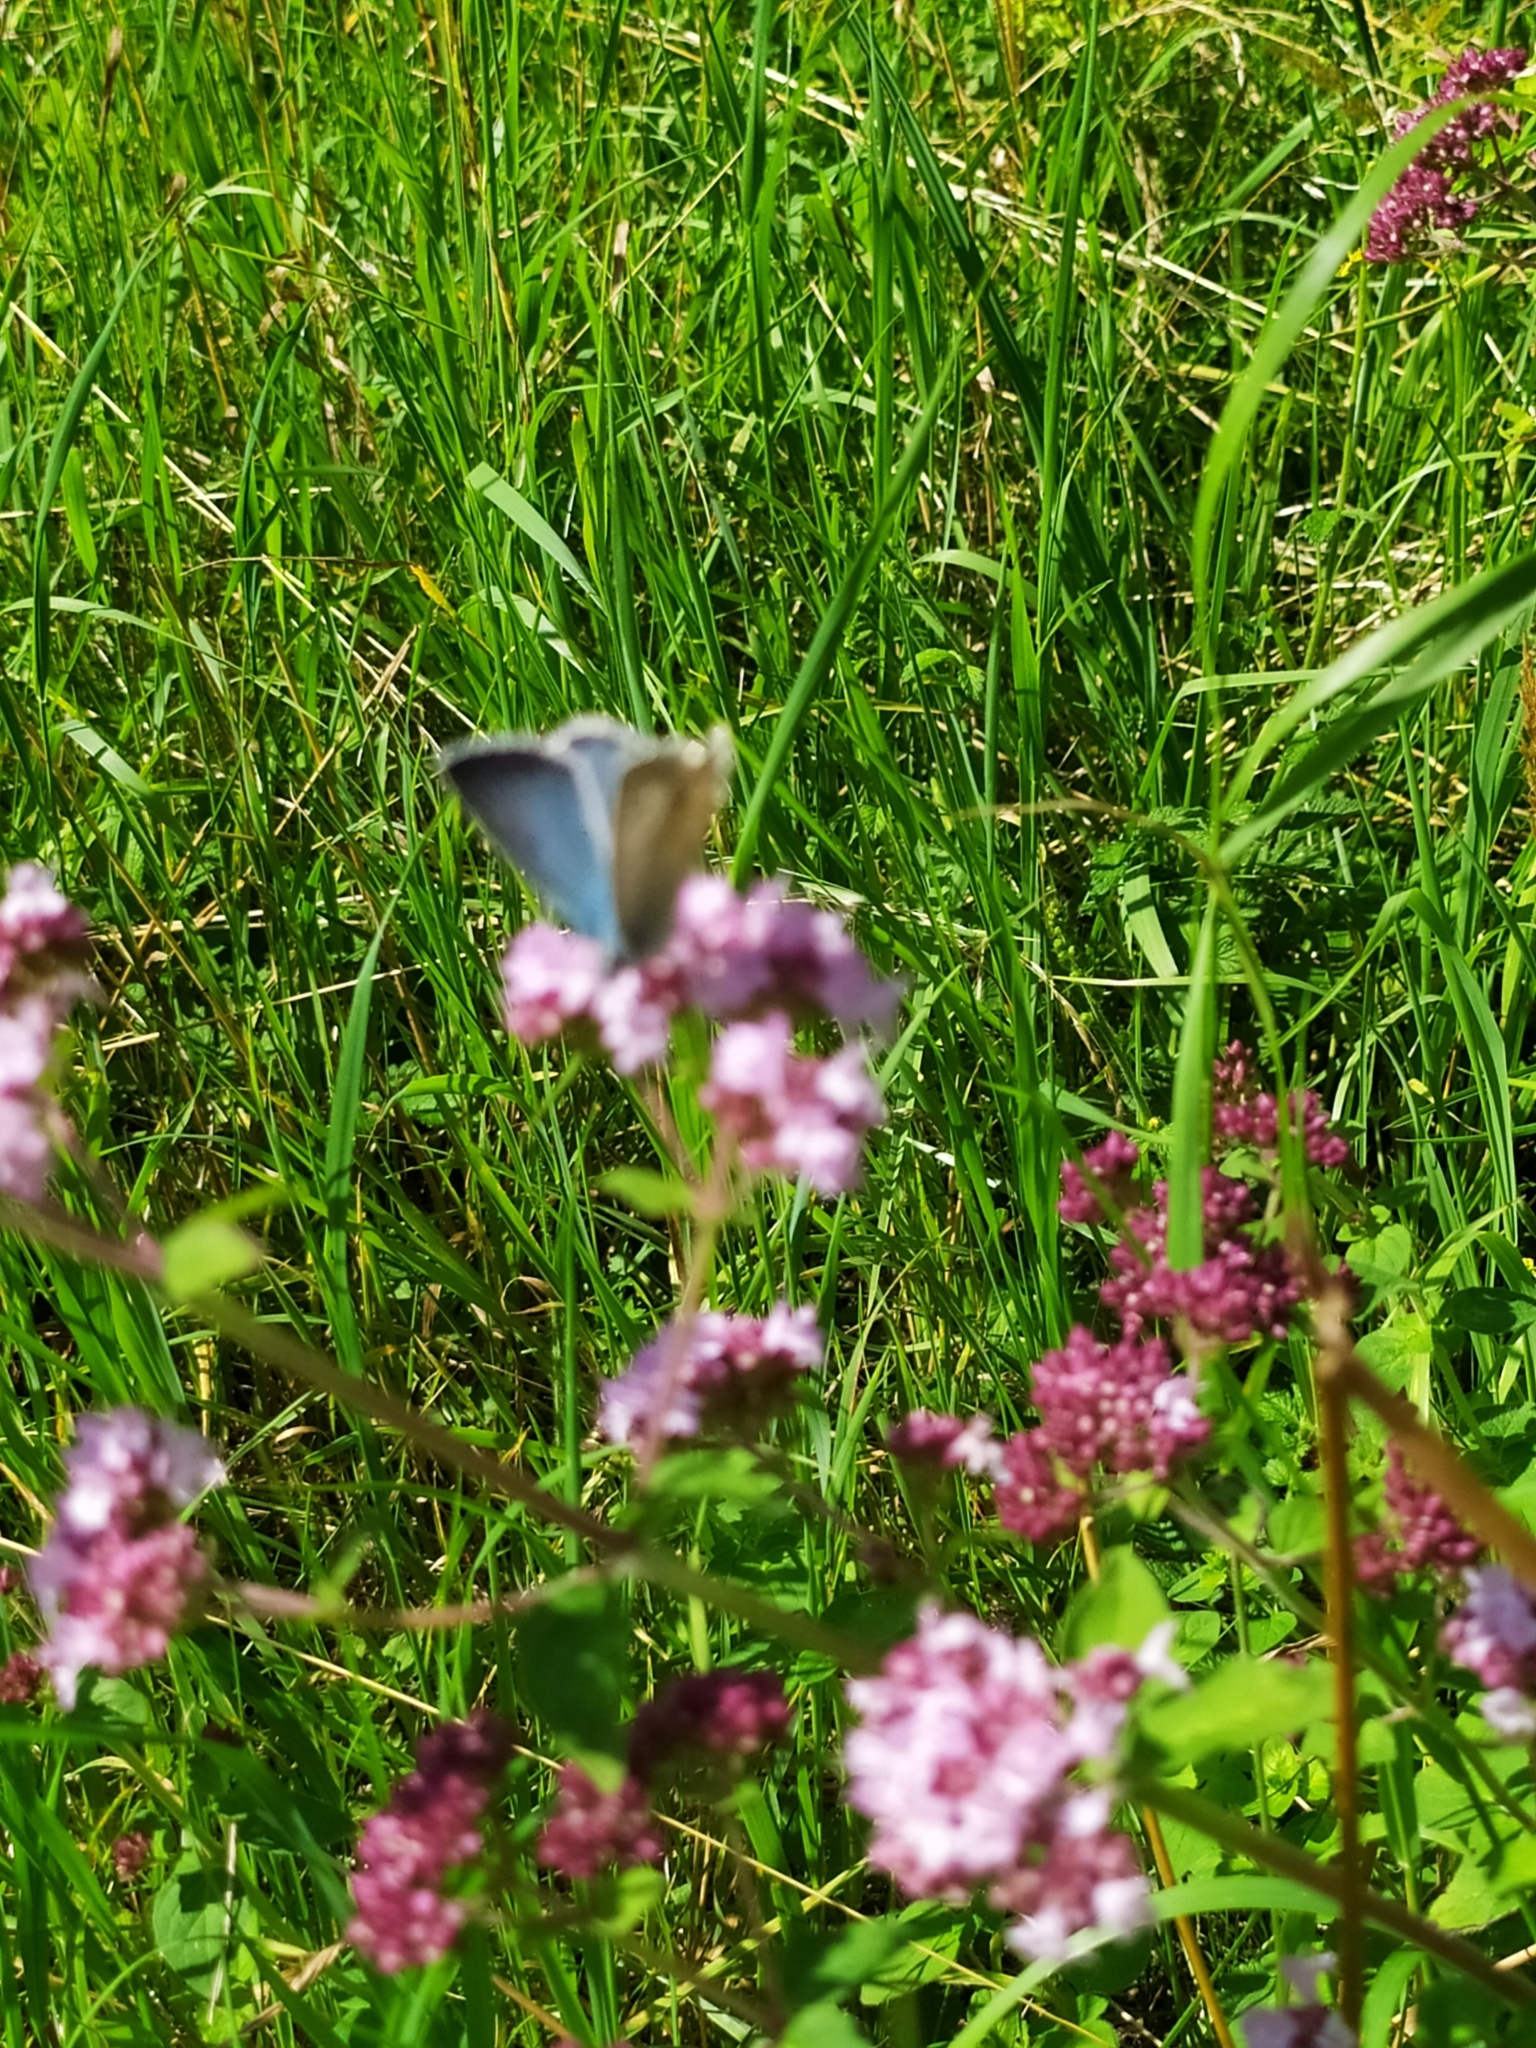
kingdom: Animalia
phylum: Arthropoda
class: Insecta
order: Lepidoptera
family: Lycaenidae
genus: Lysandra
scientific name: Lysandra coridon
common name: Chalkhill blue
